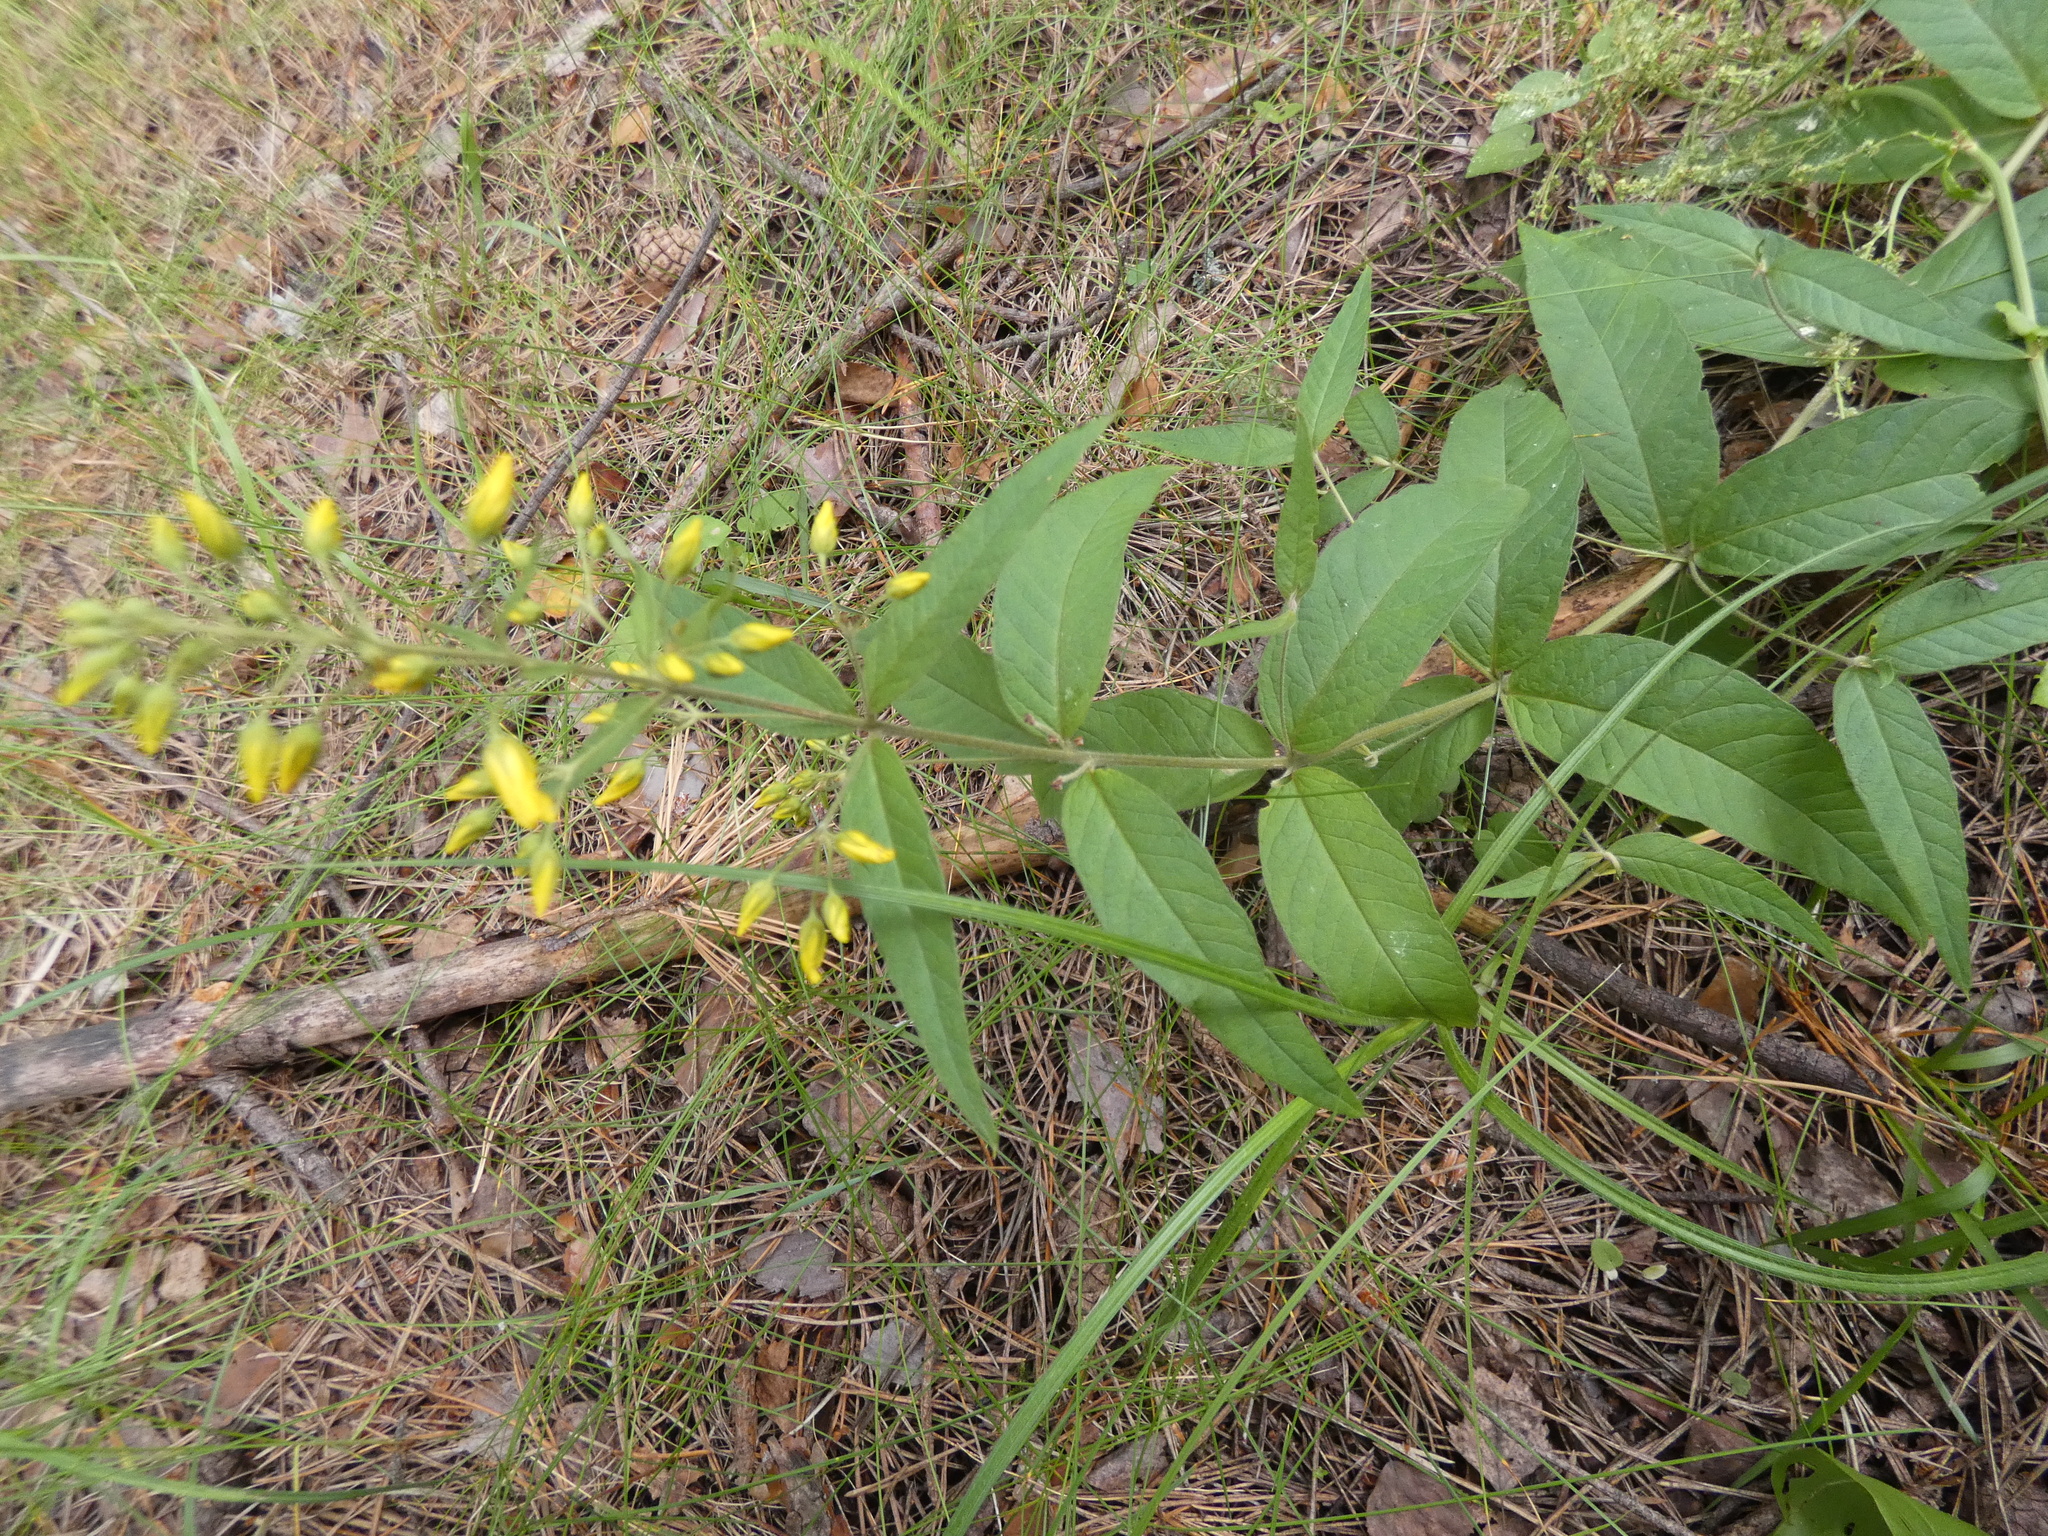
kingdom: Plantae
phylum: Tracheophyta
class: Magnoliopsida
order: Ericales
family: Primulaceae
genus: Lysimachia
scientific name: Lysimachia vulgaris
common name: Yellow loosestrife
